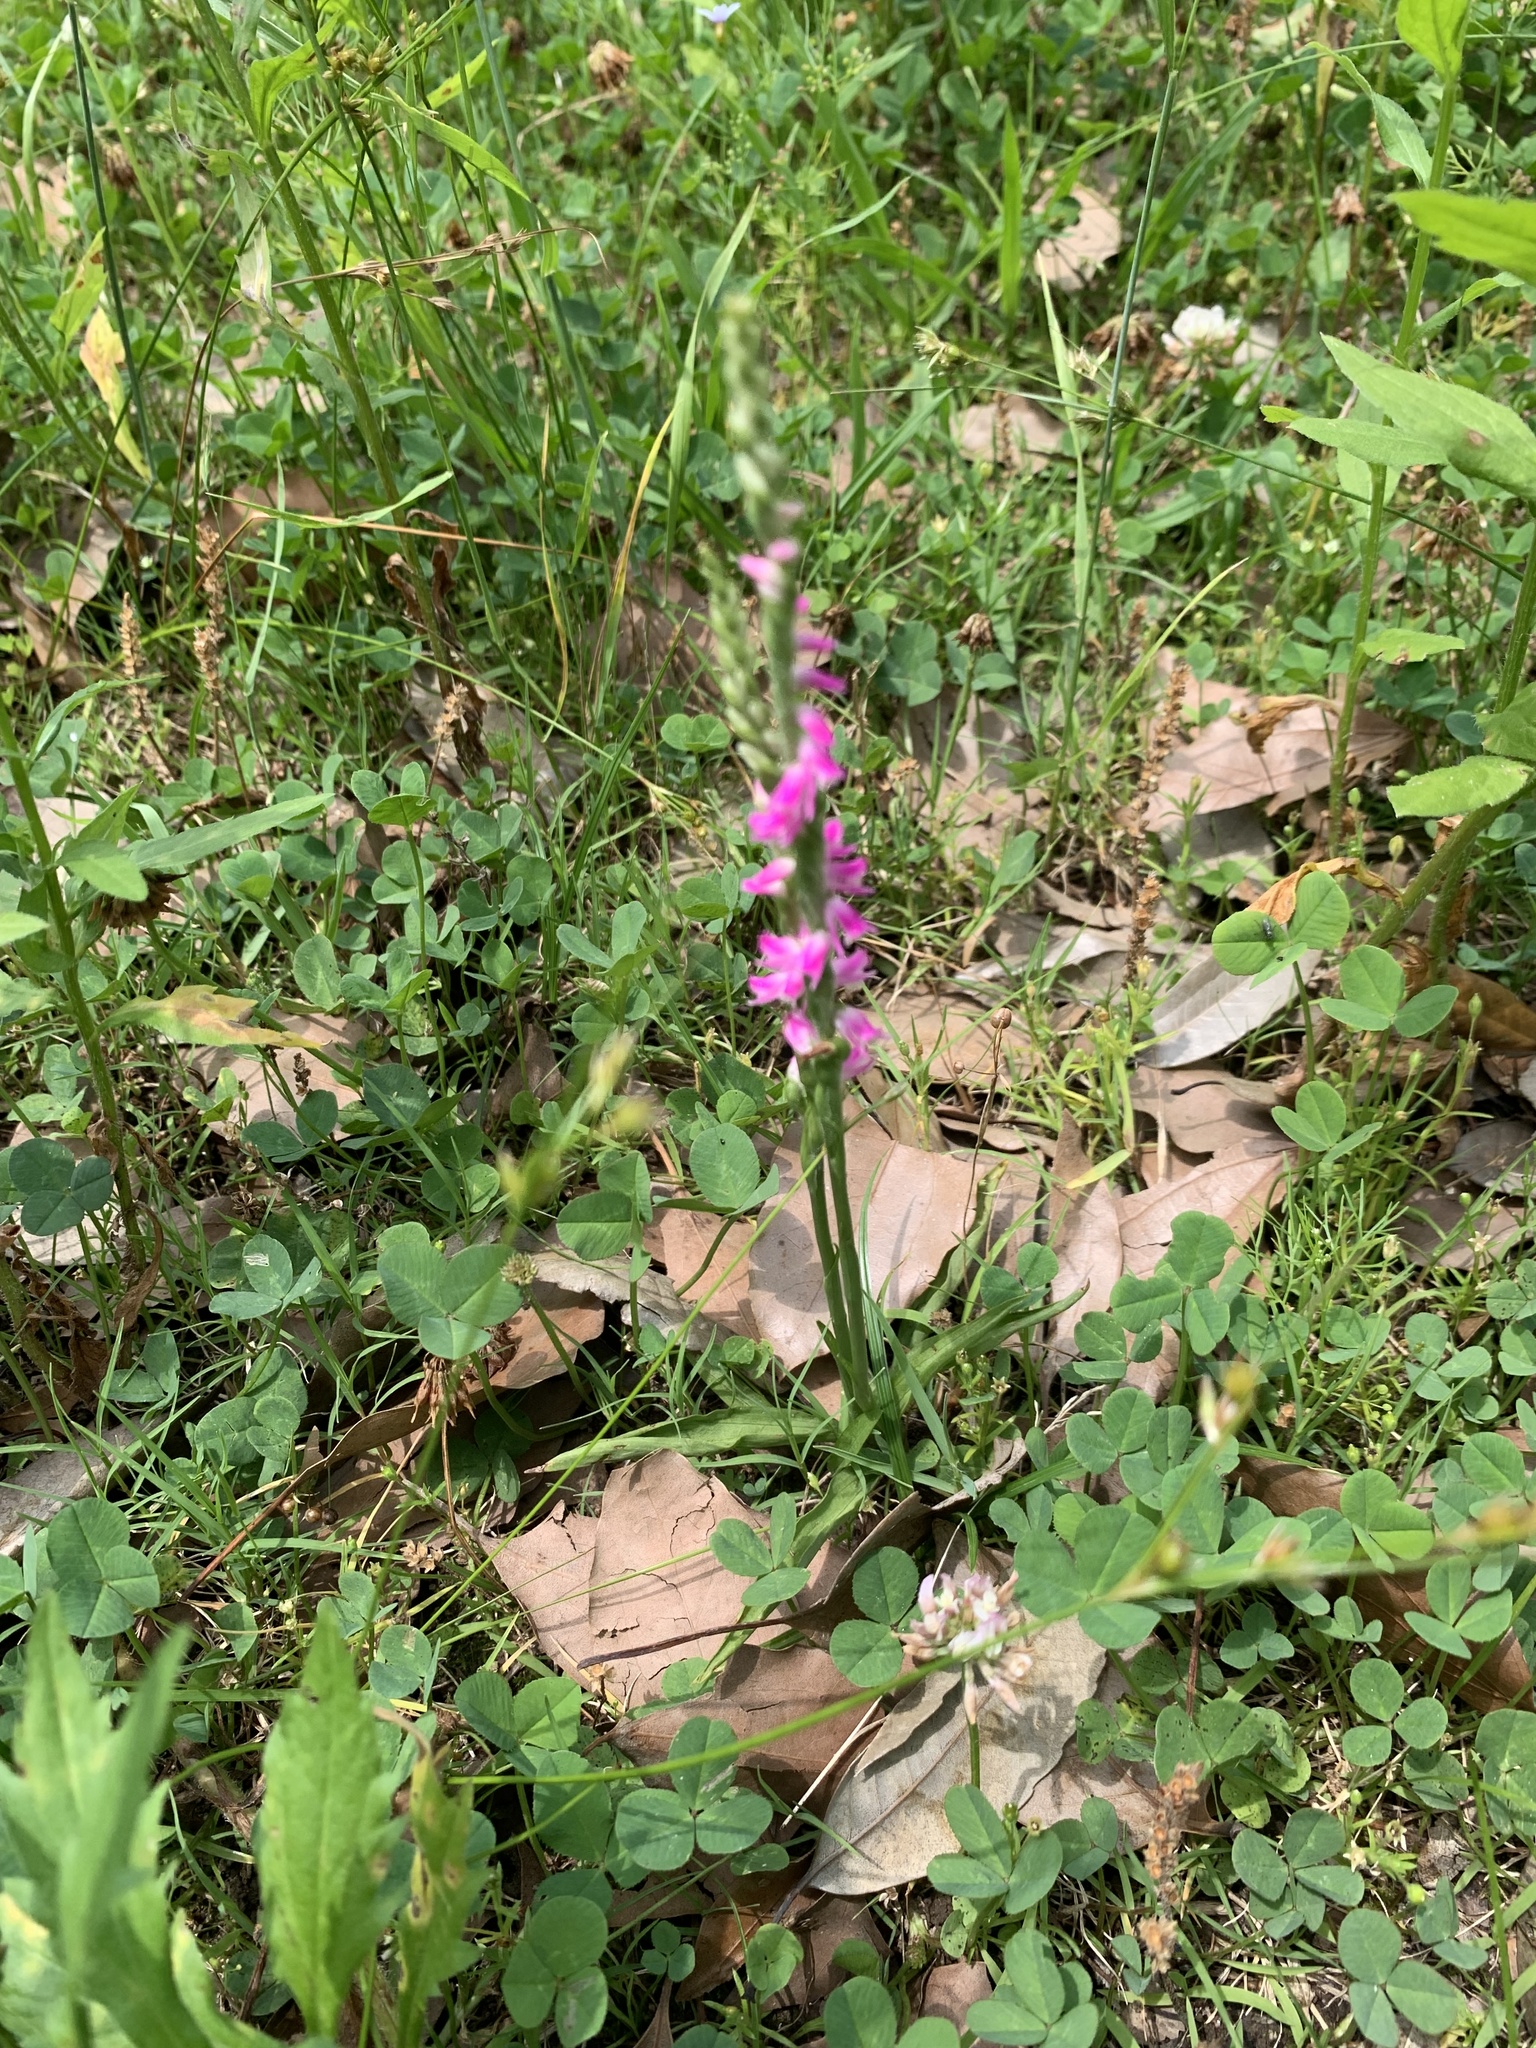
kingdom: Plantae
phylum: Tracheophyta
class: Liliopsida
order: Asparagales
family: Orchidaceae
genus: Spiranthes
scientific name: Spiranthes australis
